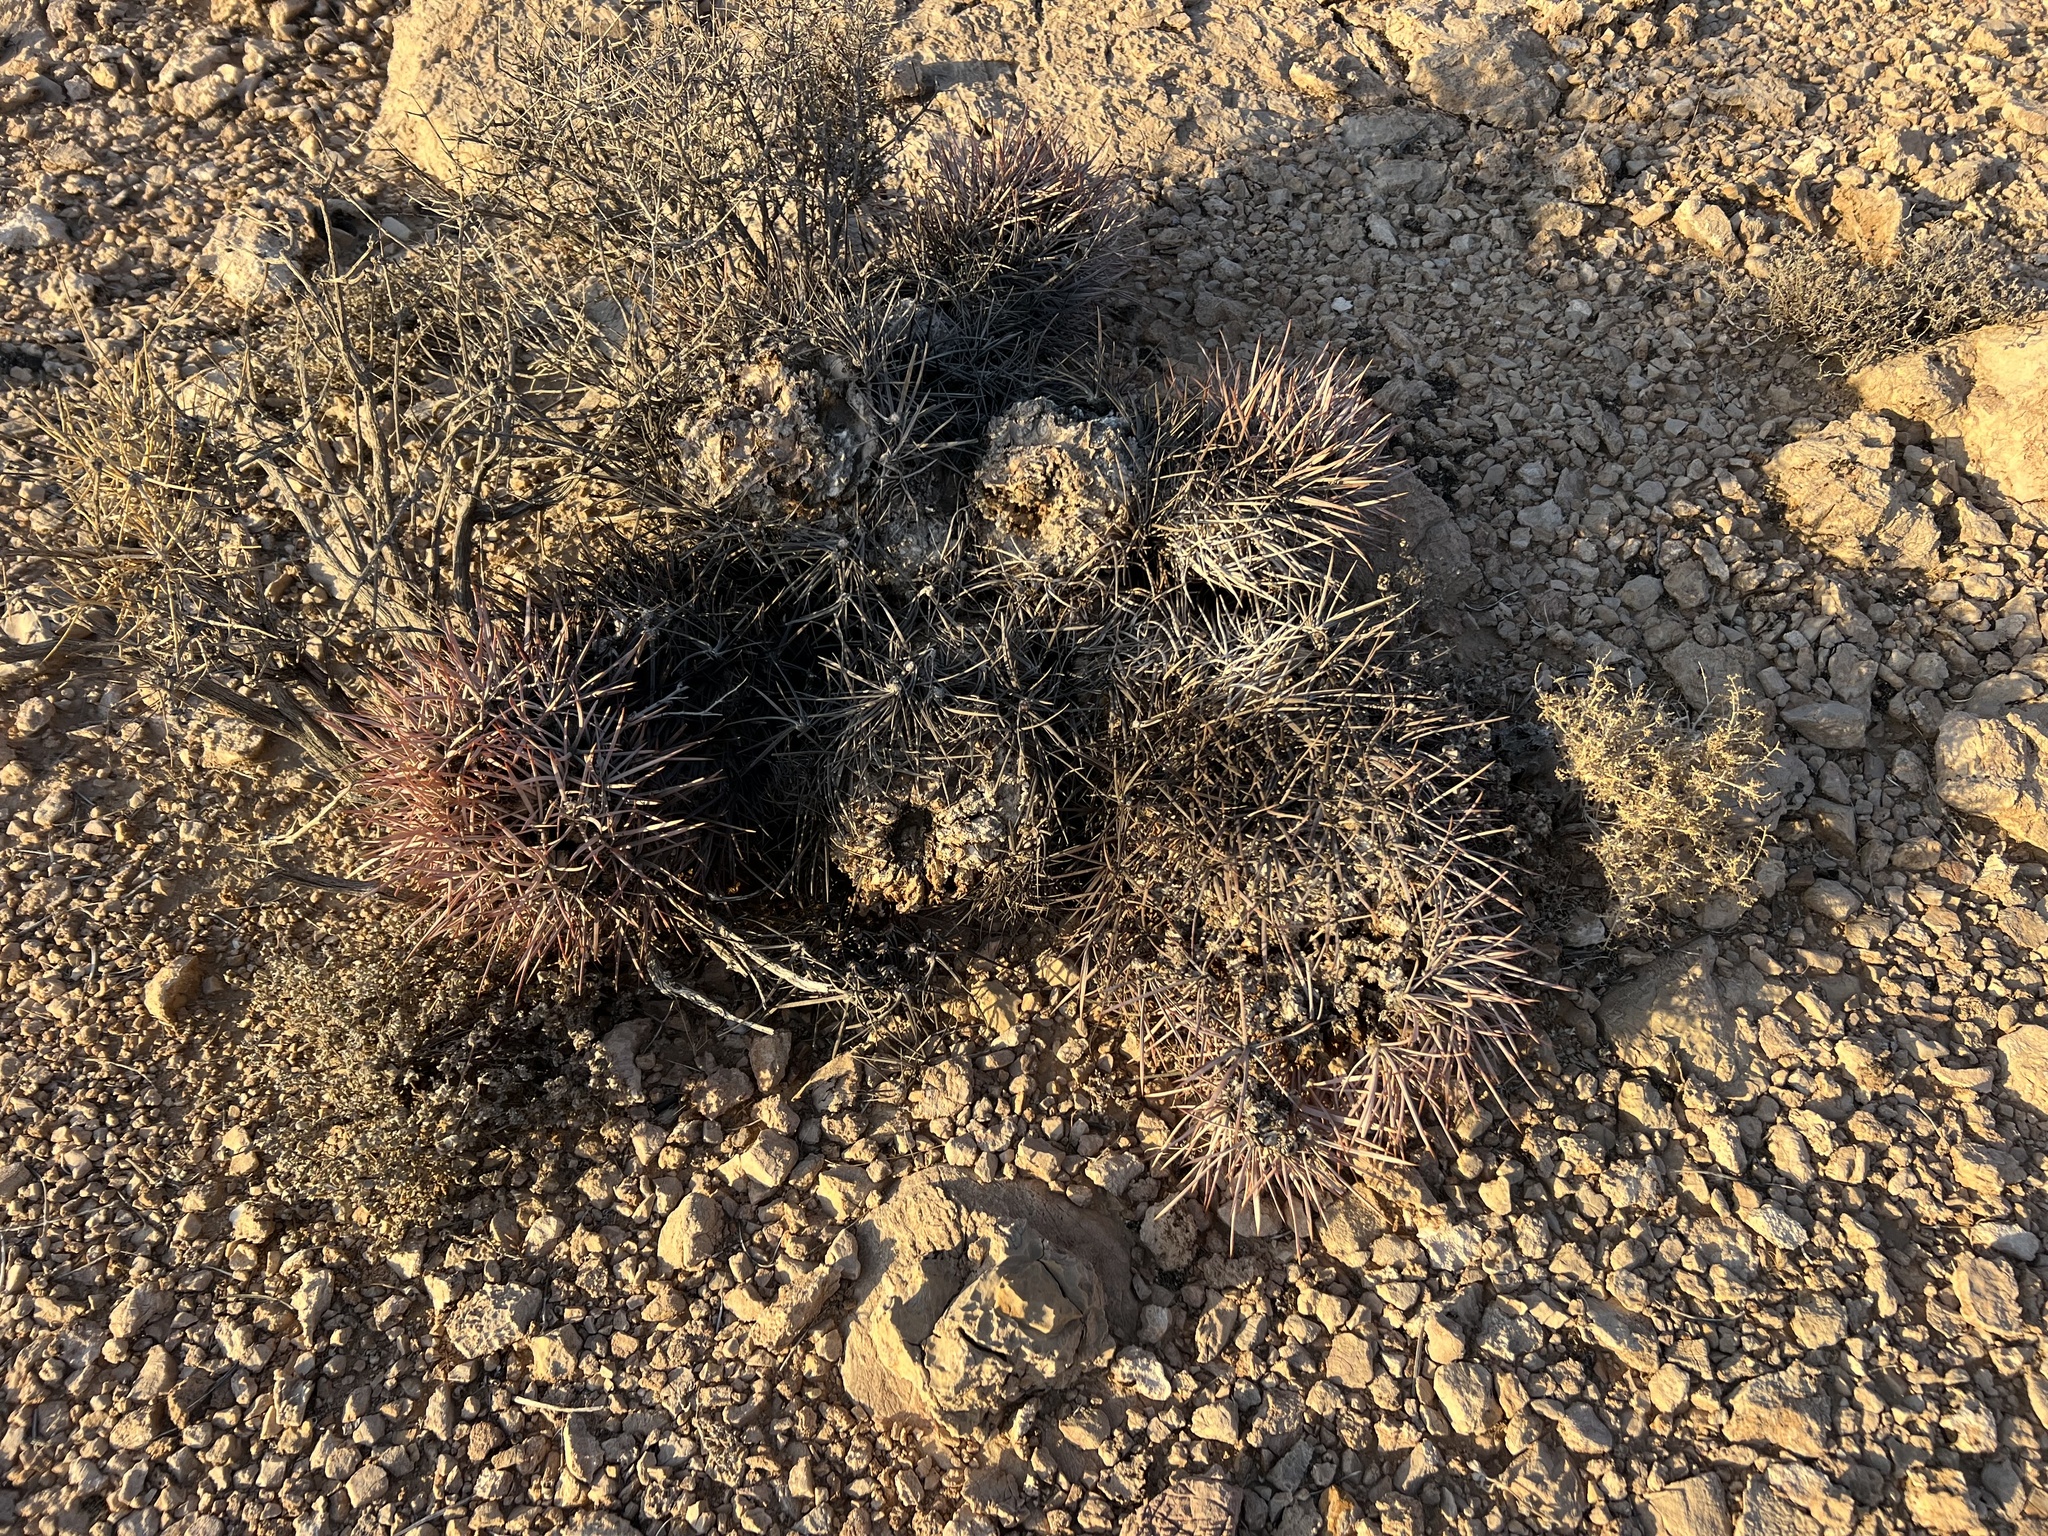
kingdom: Plantae
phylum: Tracheophyta
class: Magnoliopsida
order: Caryophyllales
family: Cactaceae
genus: Echinocactus
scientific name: Echinocactus polycephalus
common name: Cottontop cactus
